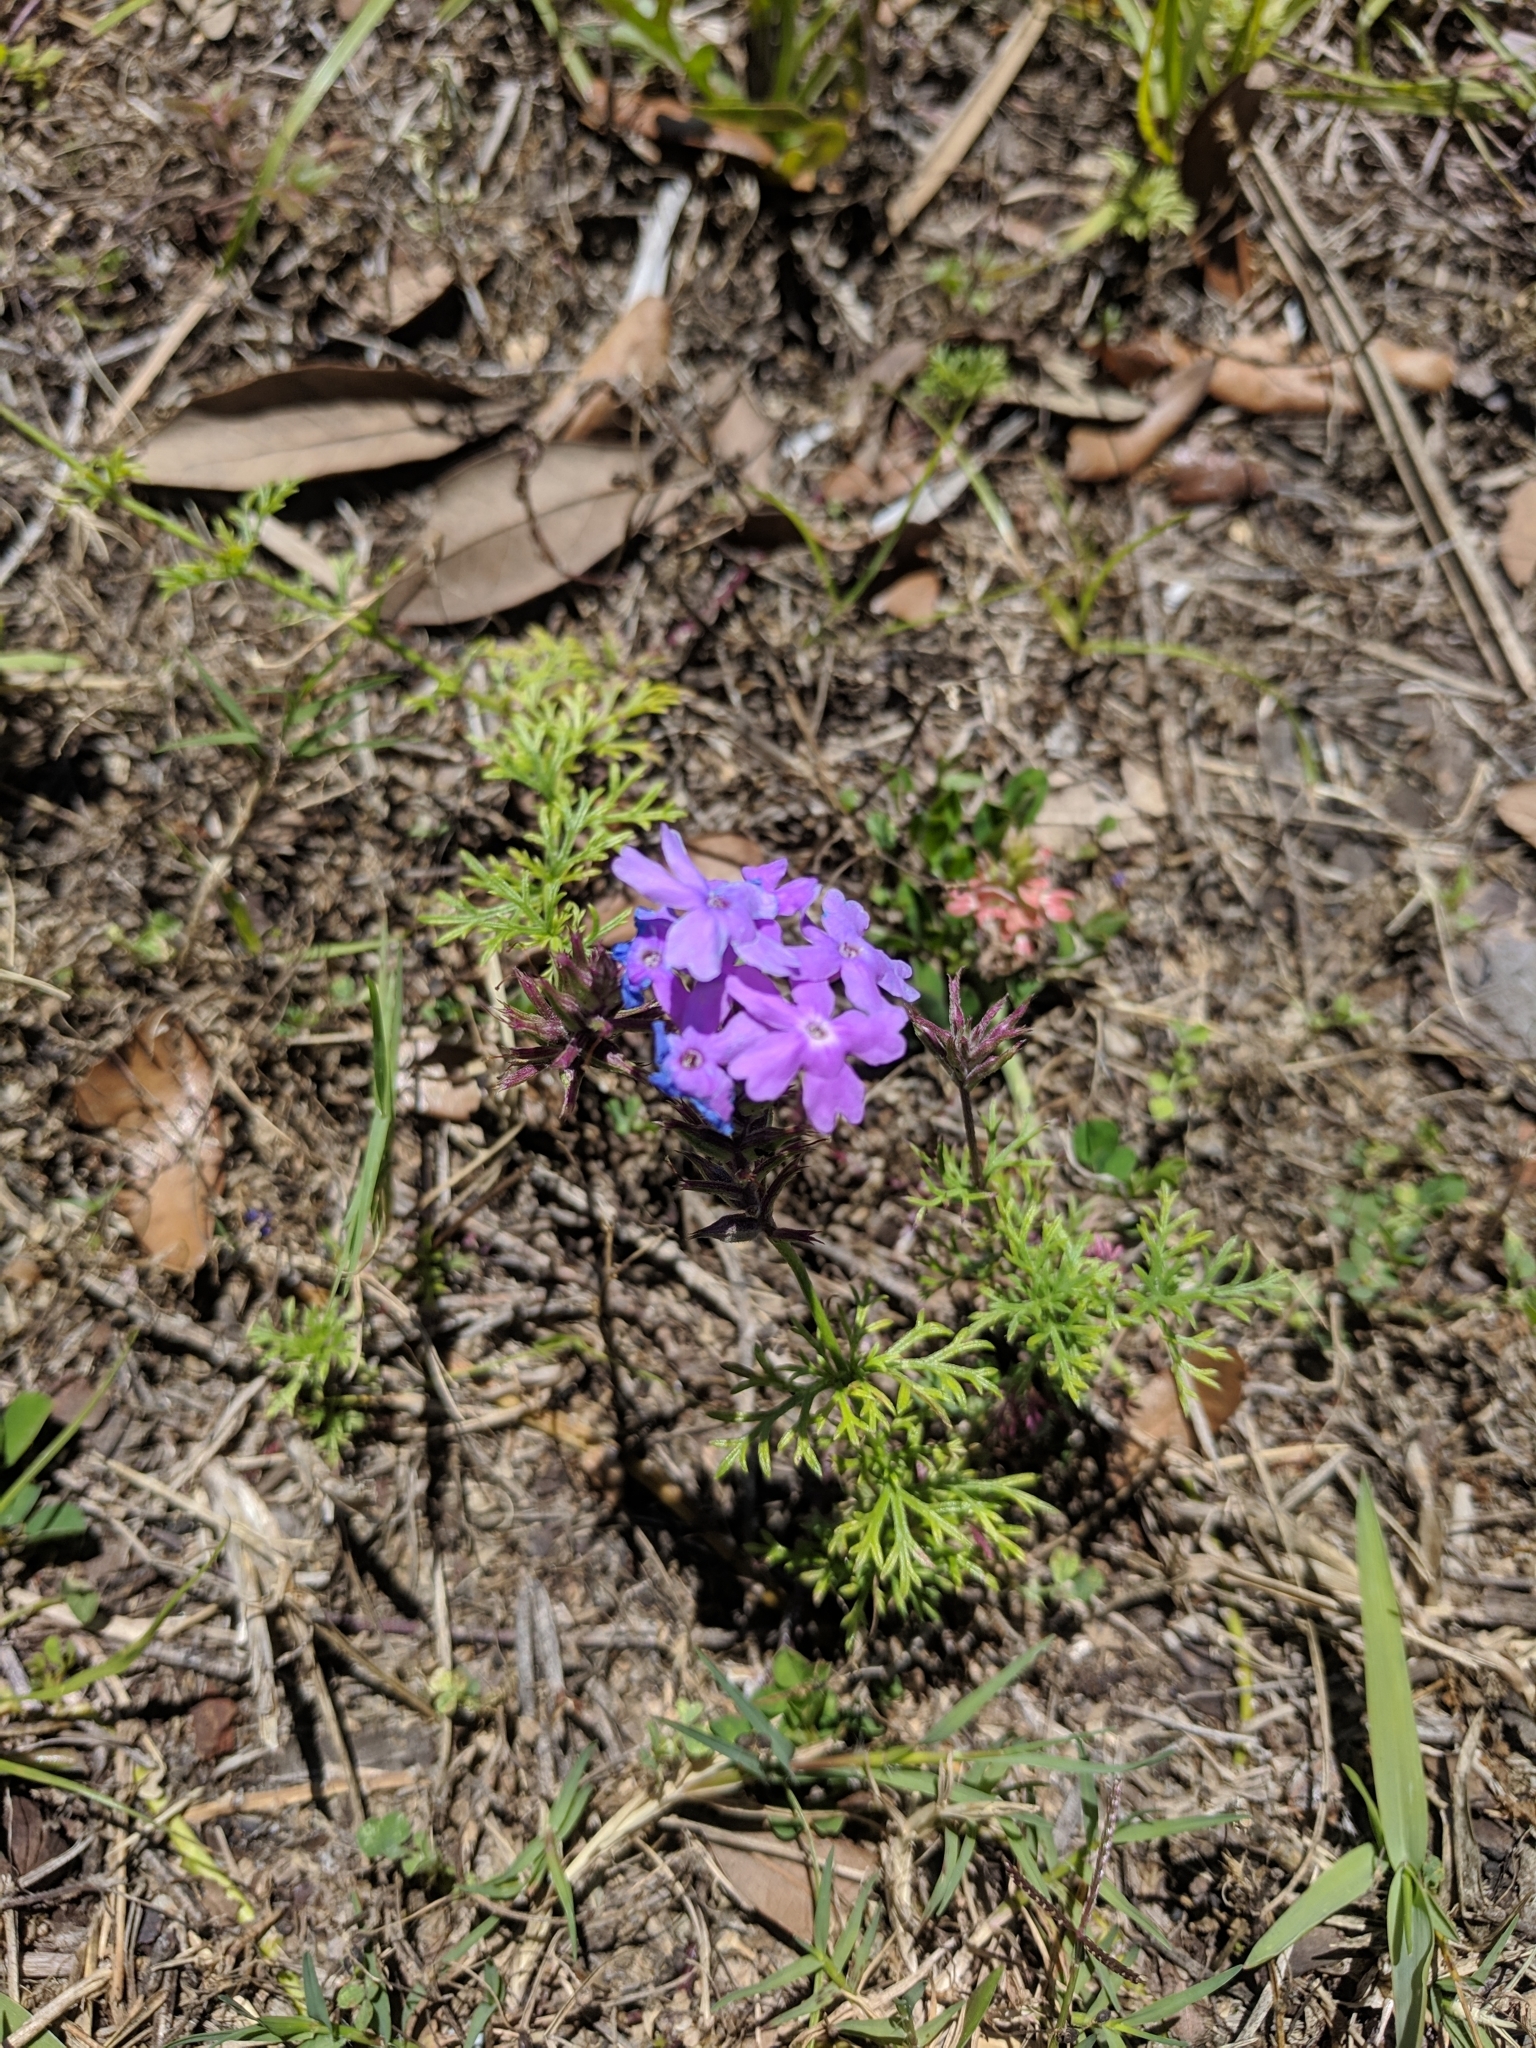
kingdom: Plantae
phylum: Tracheophyta
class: Magnoliopsida
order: Lamiales
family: Verbenaceae
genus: Verbena
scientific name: Verbena
